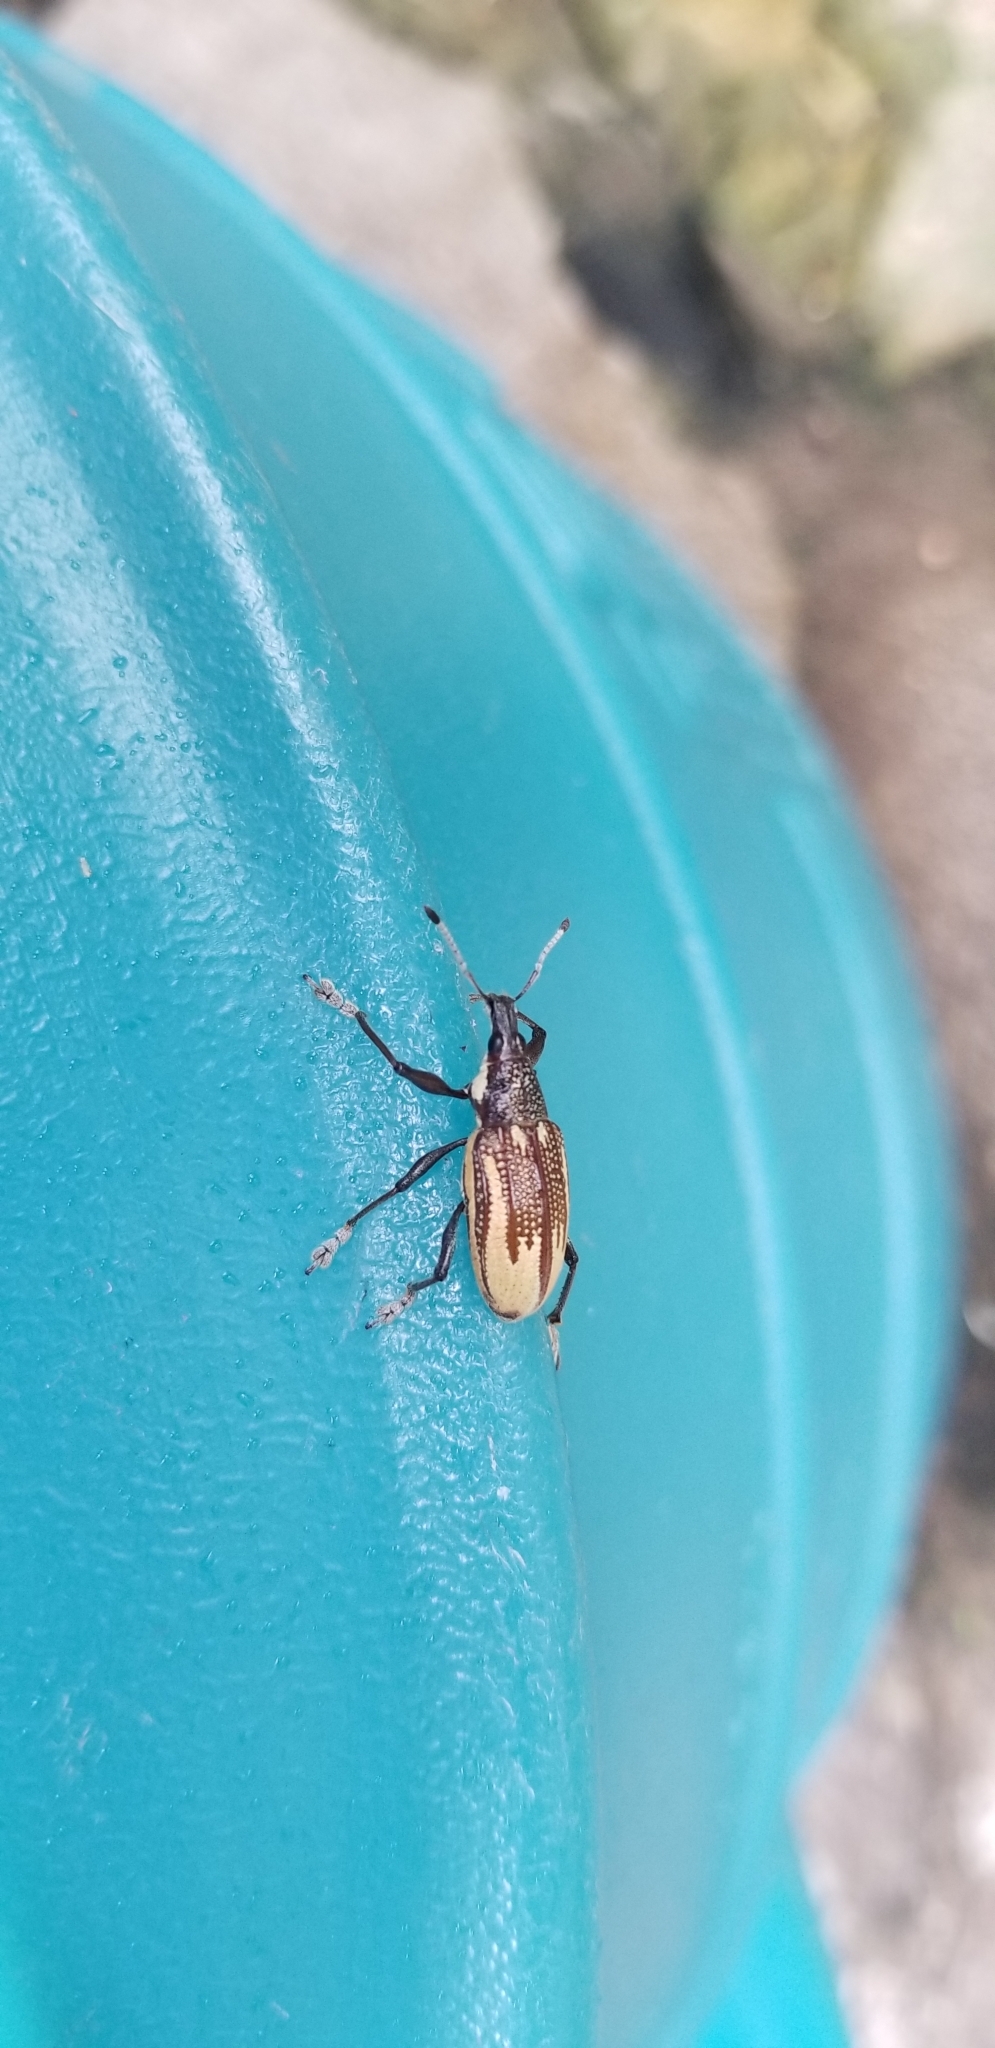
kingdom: Animalia
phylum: Arthropoda
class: Insecta
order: Coleoptera
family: Curculionidae
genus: Diaprepes
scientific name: Diaprepes abbreviatus
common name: Root weevil
